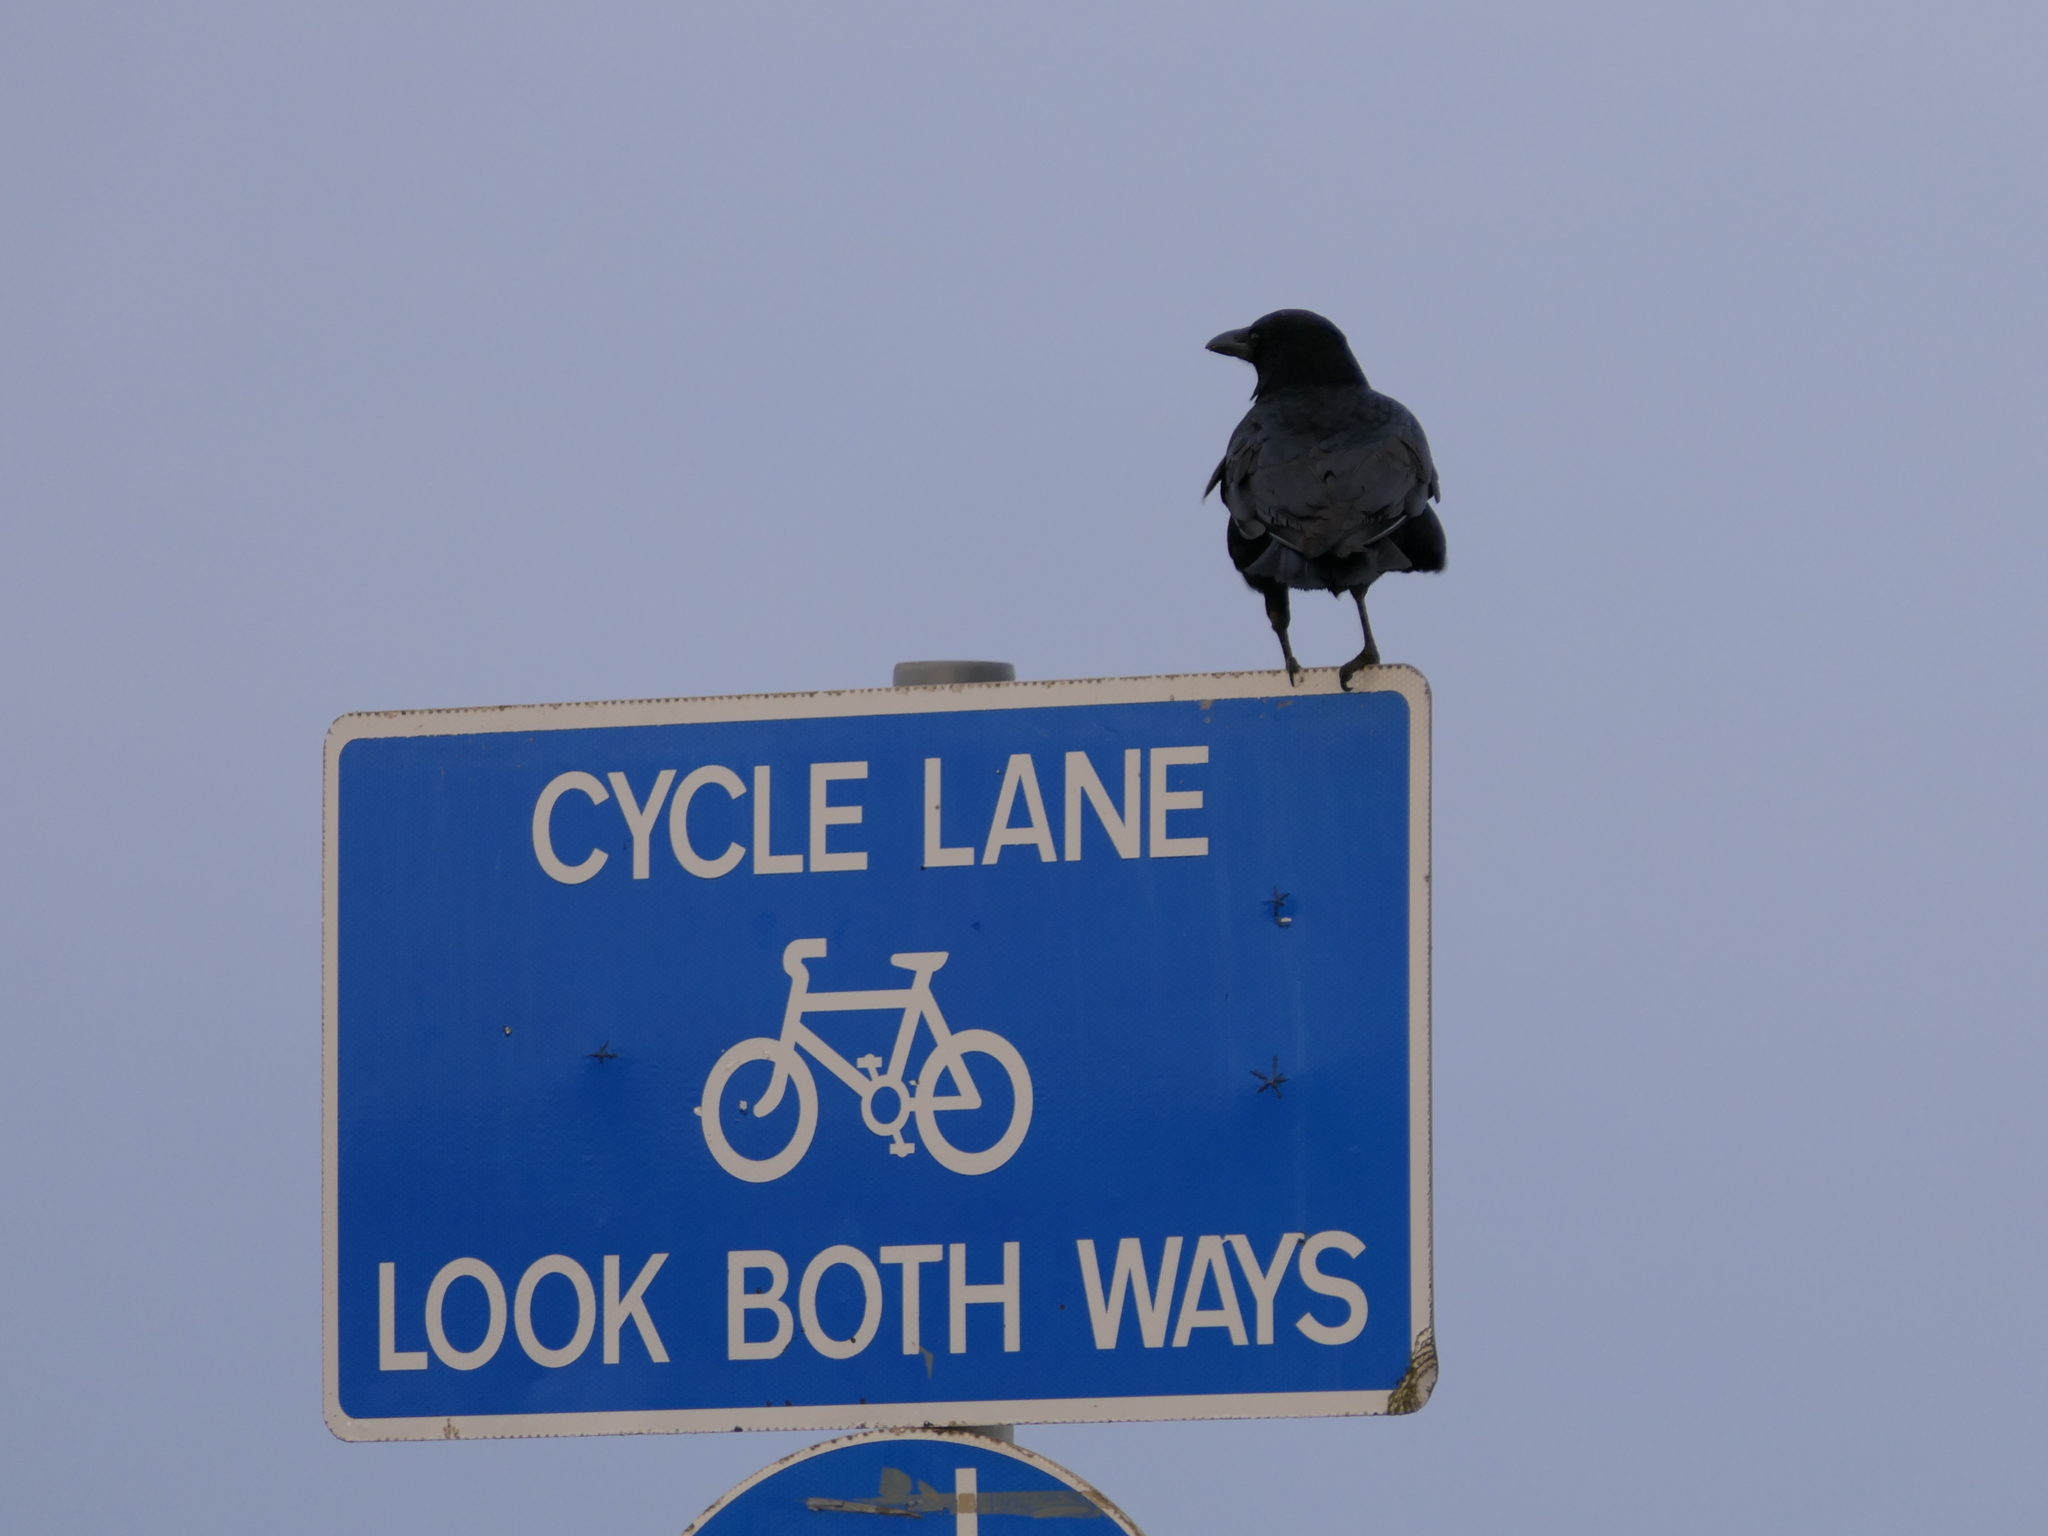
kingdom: Animalia
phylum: Chordata
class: Aves
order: Passeriformes
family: Corvidae
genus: Corvus
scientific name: Corvus corone
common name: Carrion crow
